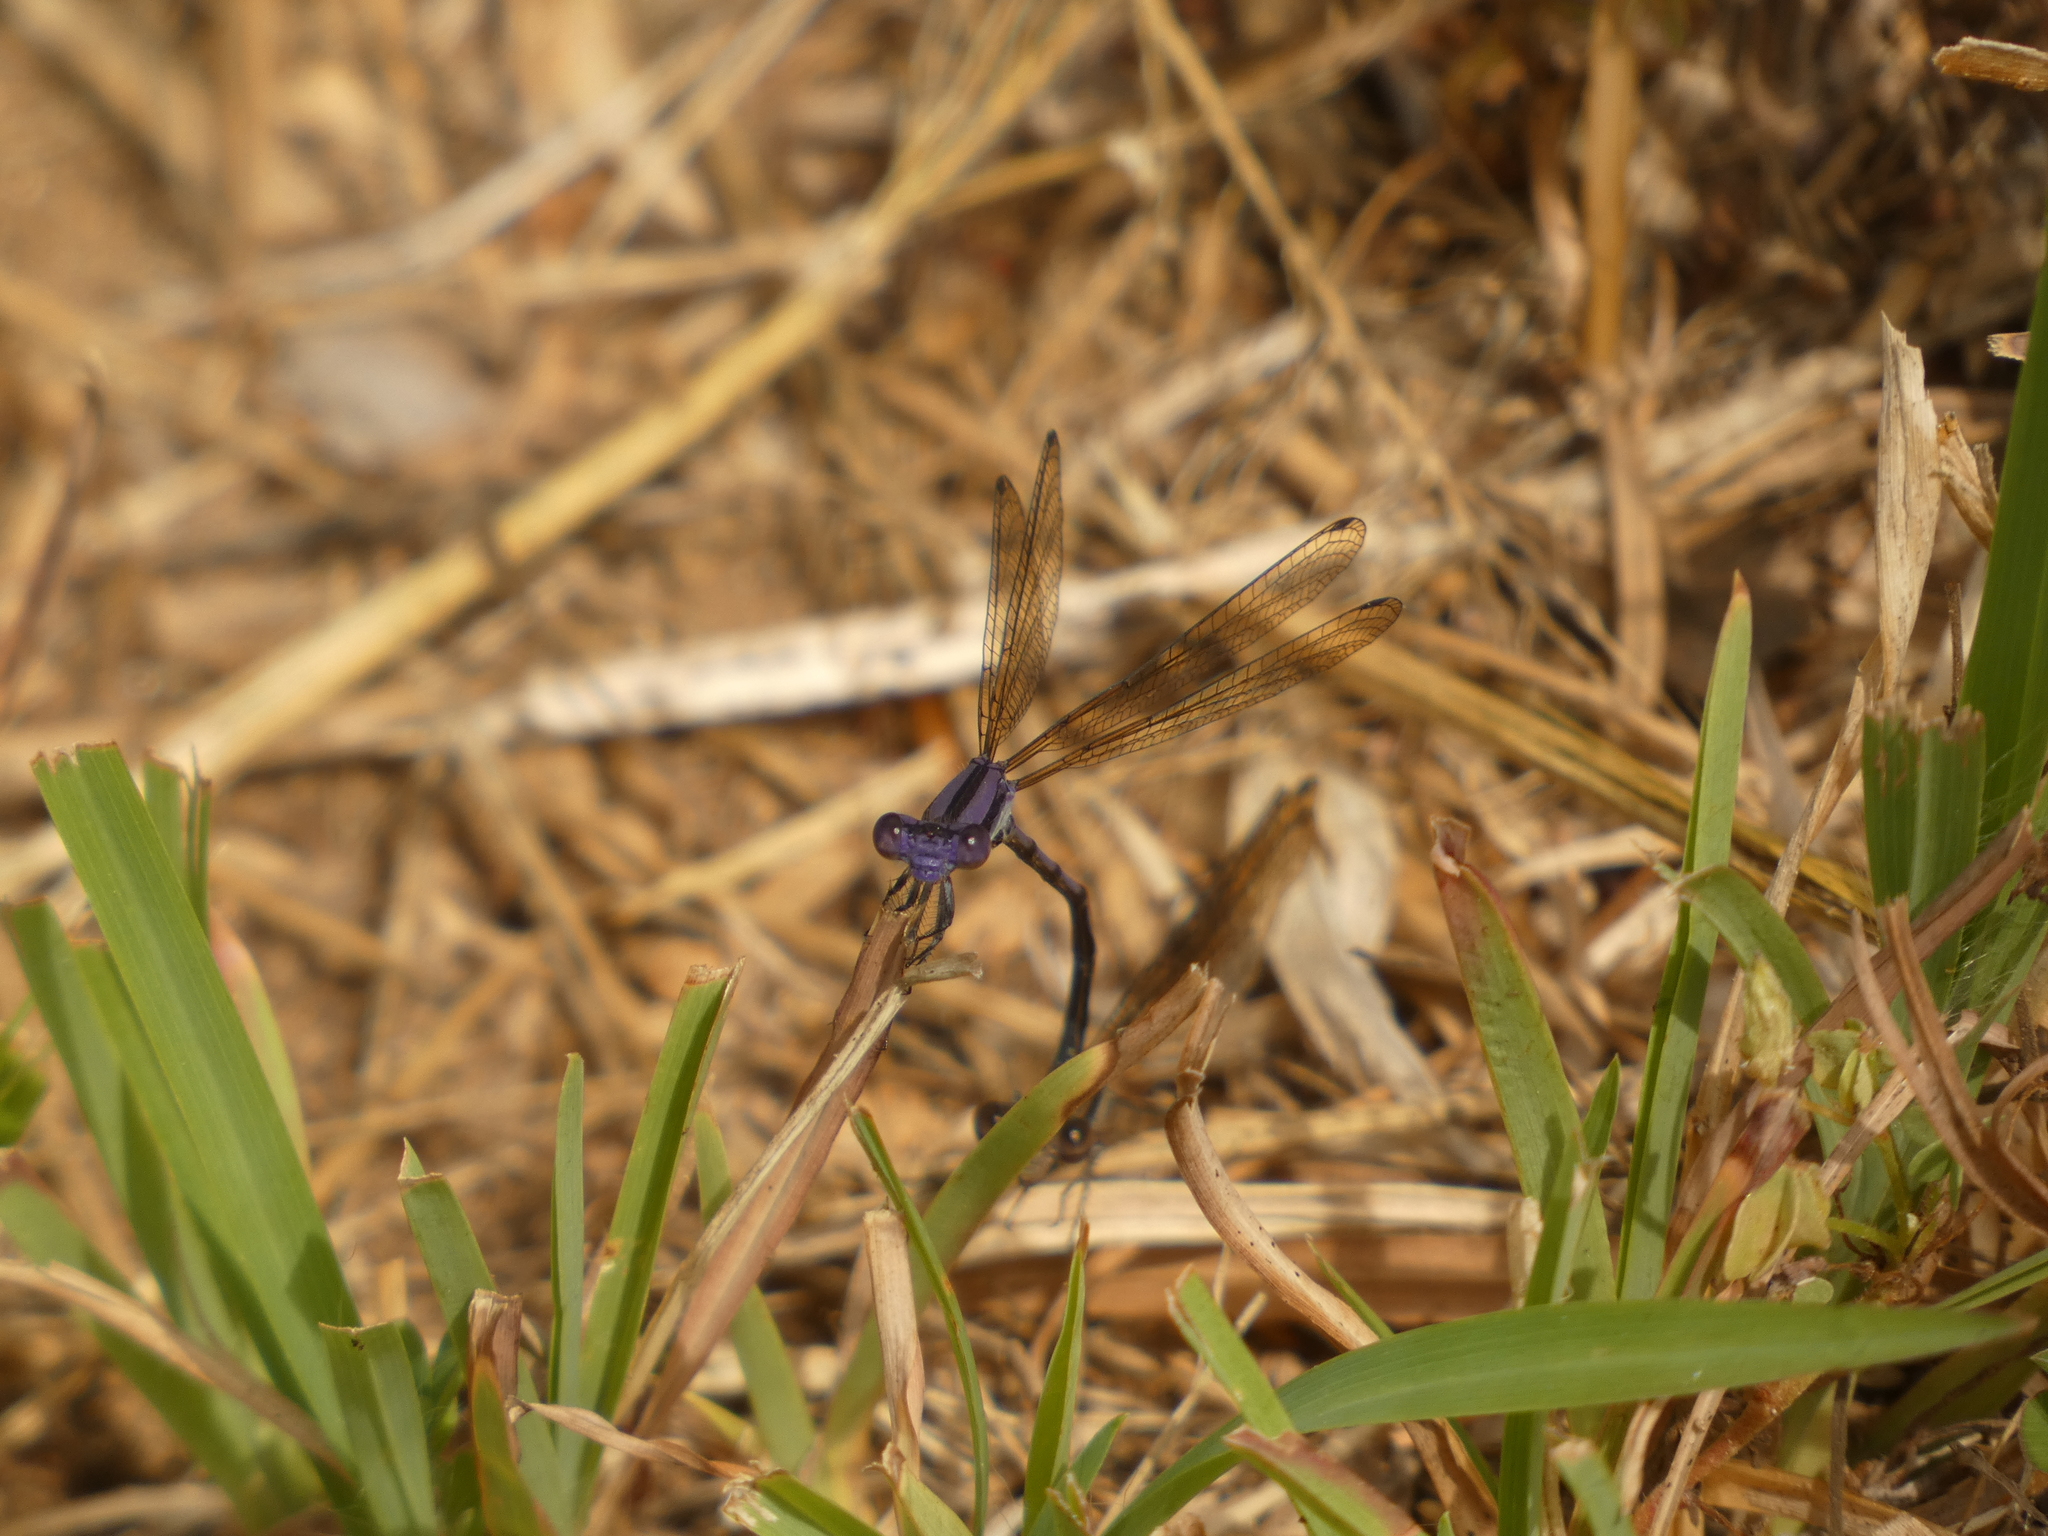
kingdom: Animalia
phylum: Arthropoda
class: Insecta
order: Odonata
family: Coenagrionidae
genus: Argia
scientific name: Argia fumipennis
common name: Variable dancer
